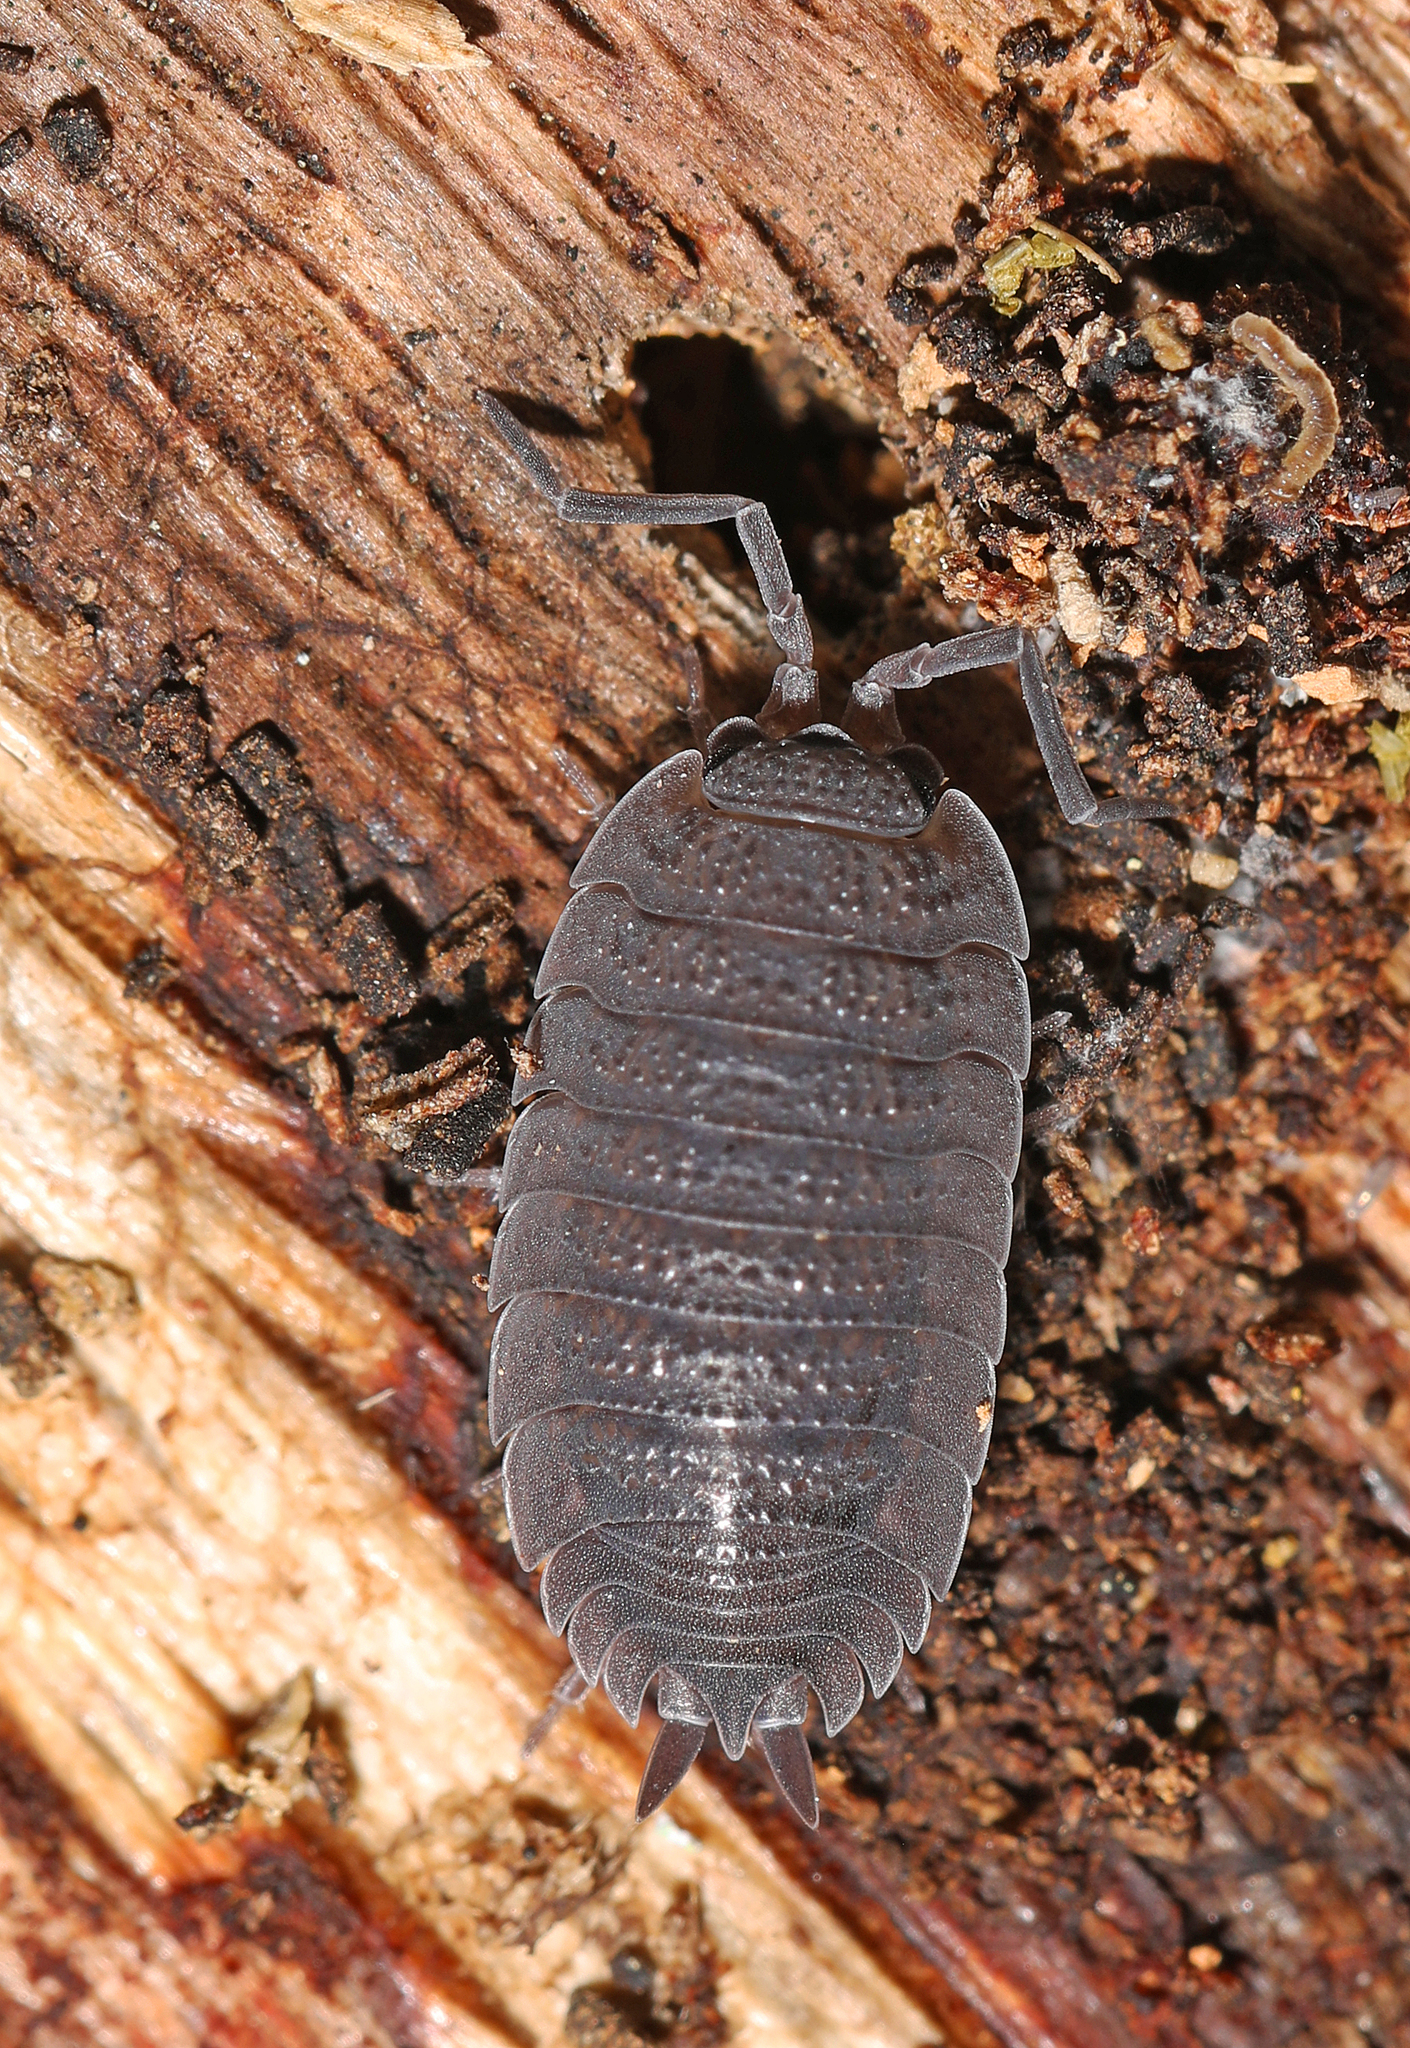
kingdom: Animalia
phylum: Arthropoda
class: Malacostraca
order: Isopoda
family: Porcellionidae
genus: Porcellio
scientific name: Porcellio scaber
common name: Common rough woodlouse
